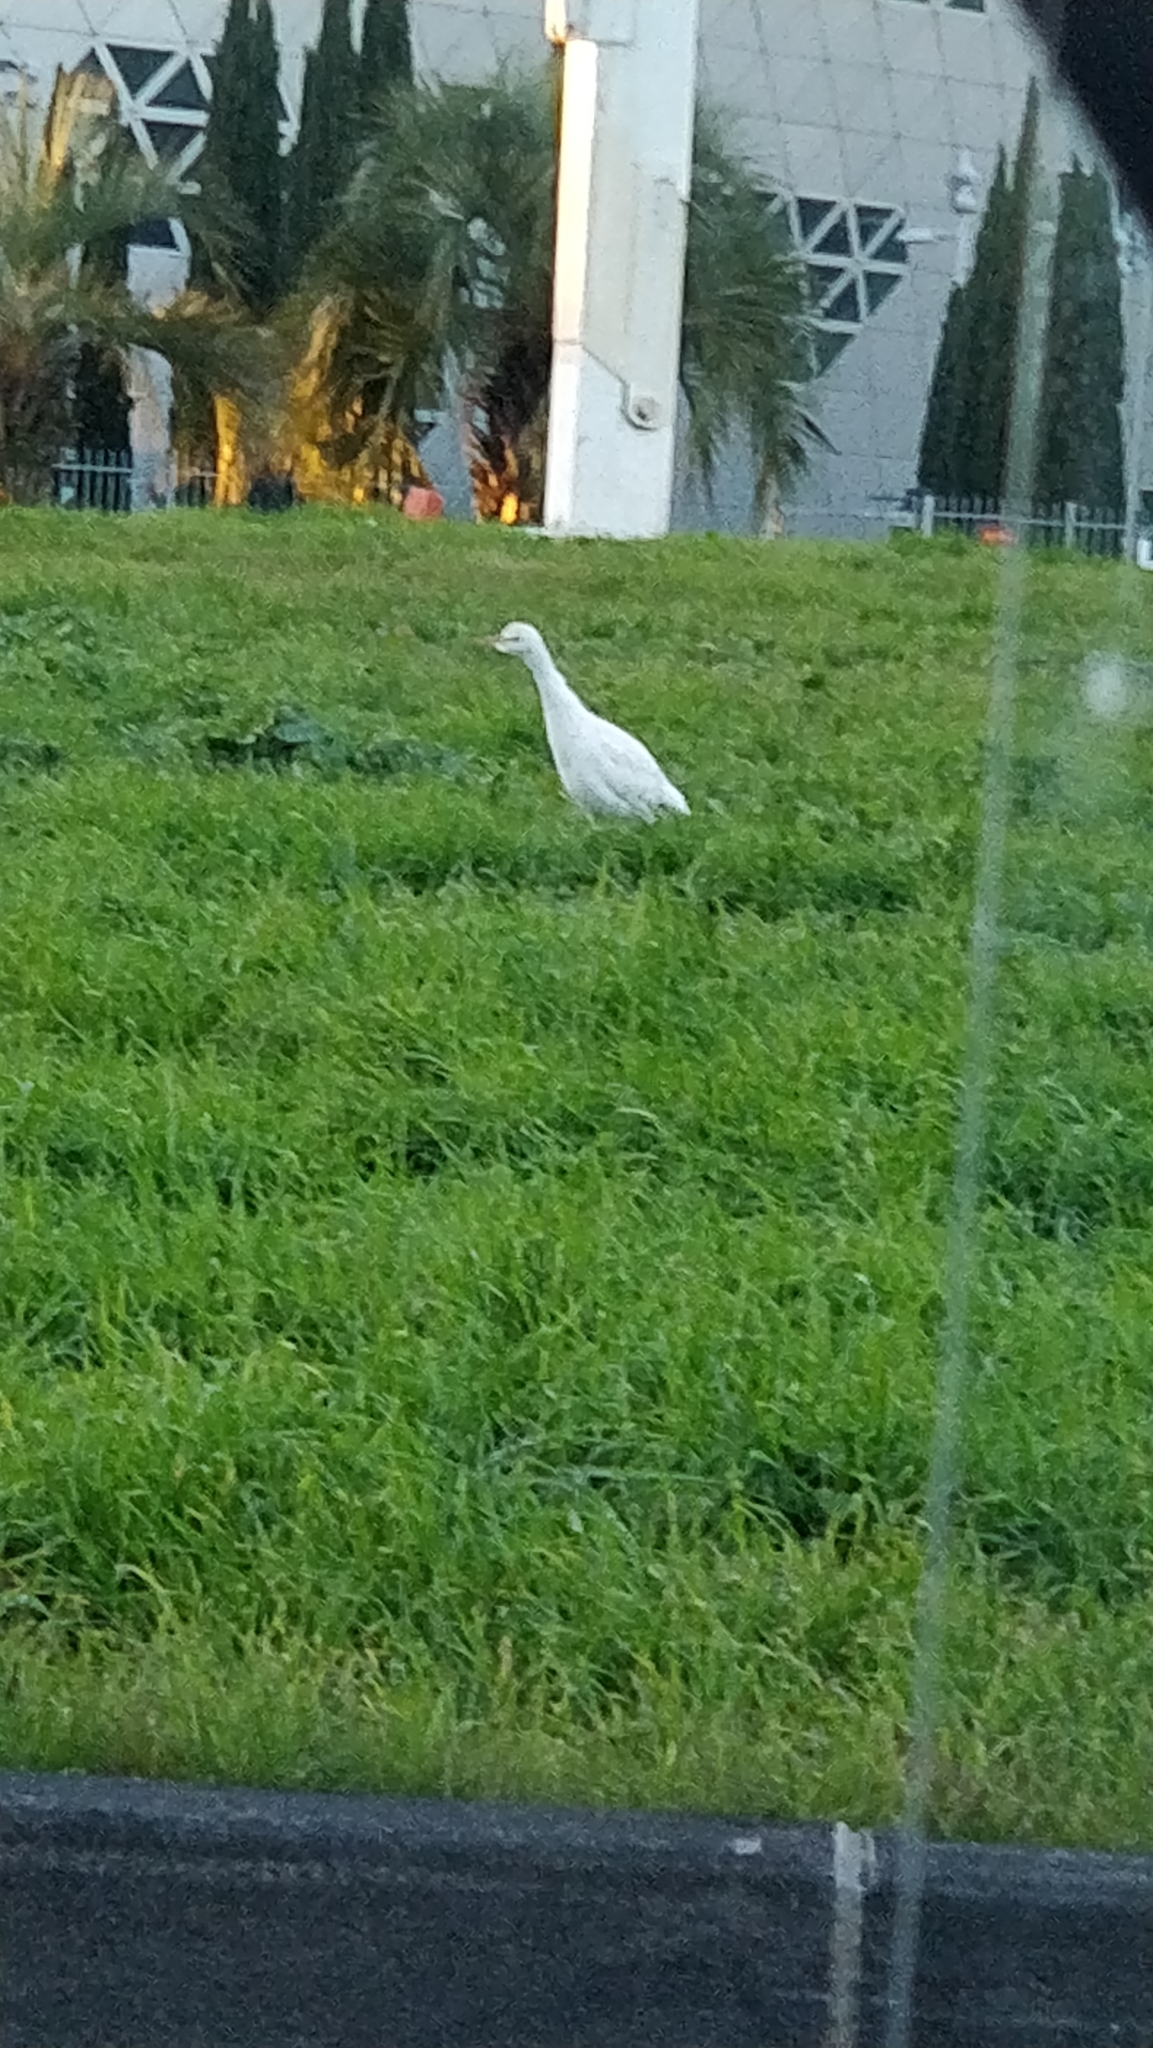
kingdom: Animalia
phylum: Chordata
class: Aves
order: Pelecaniformes
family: Ardeidae
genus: Bubulcus
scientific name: Bubulcus ibis
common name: Cattle egret
